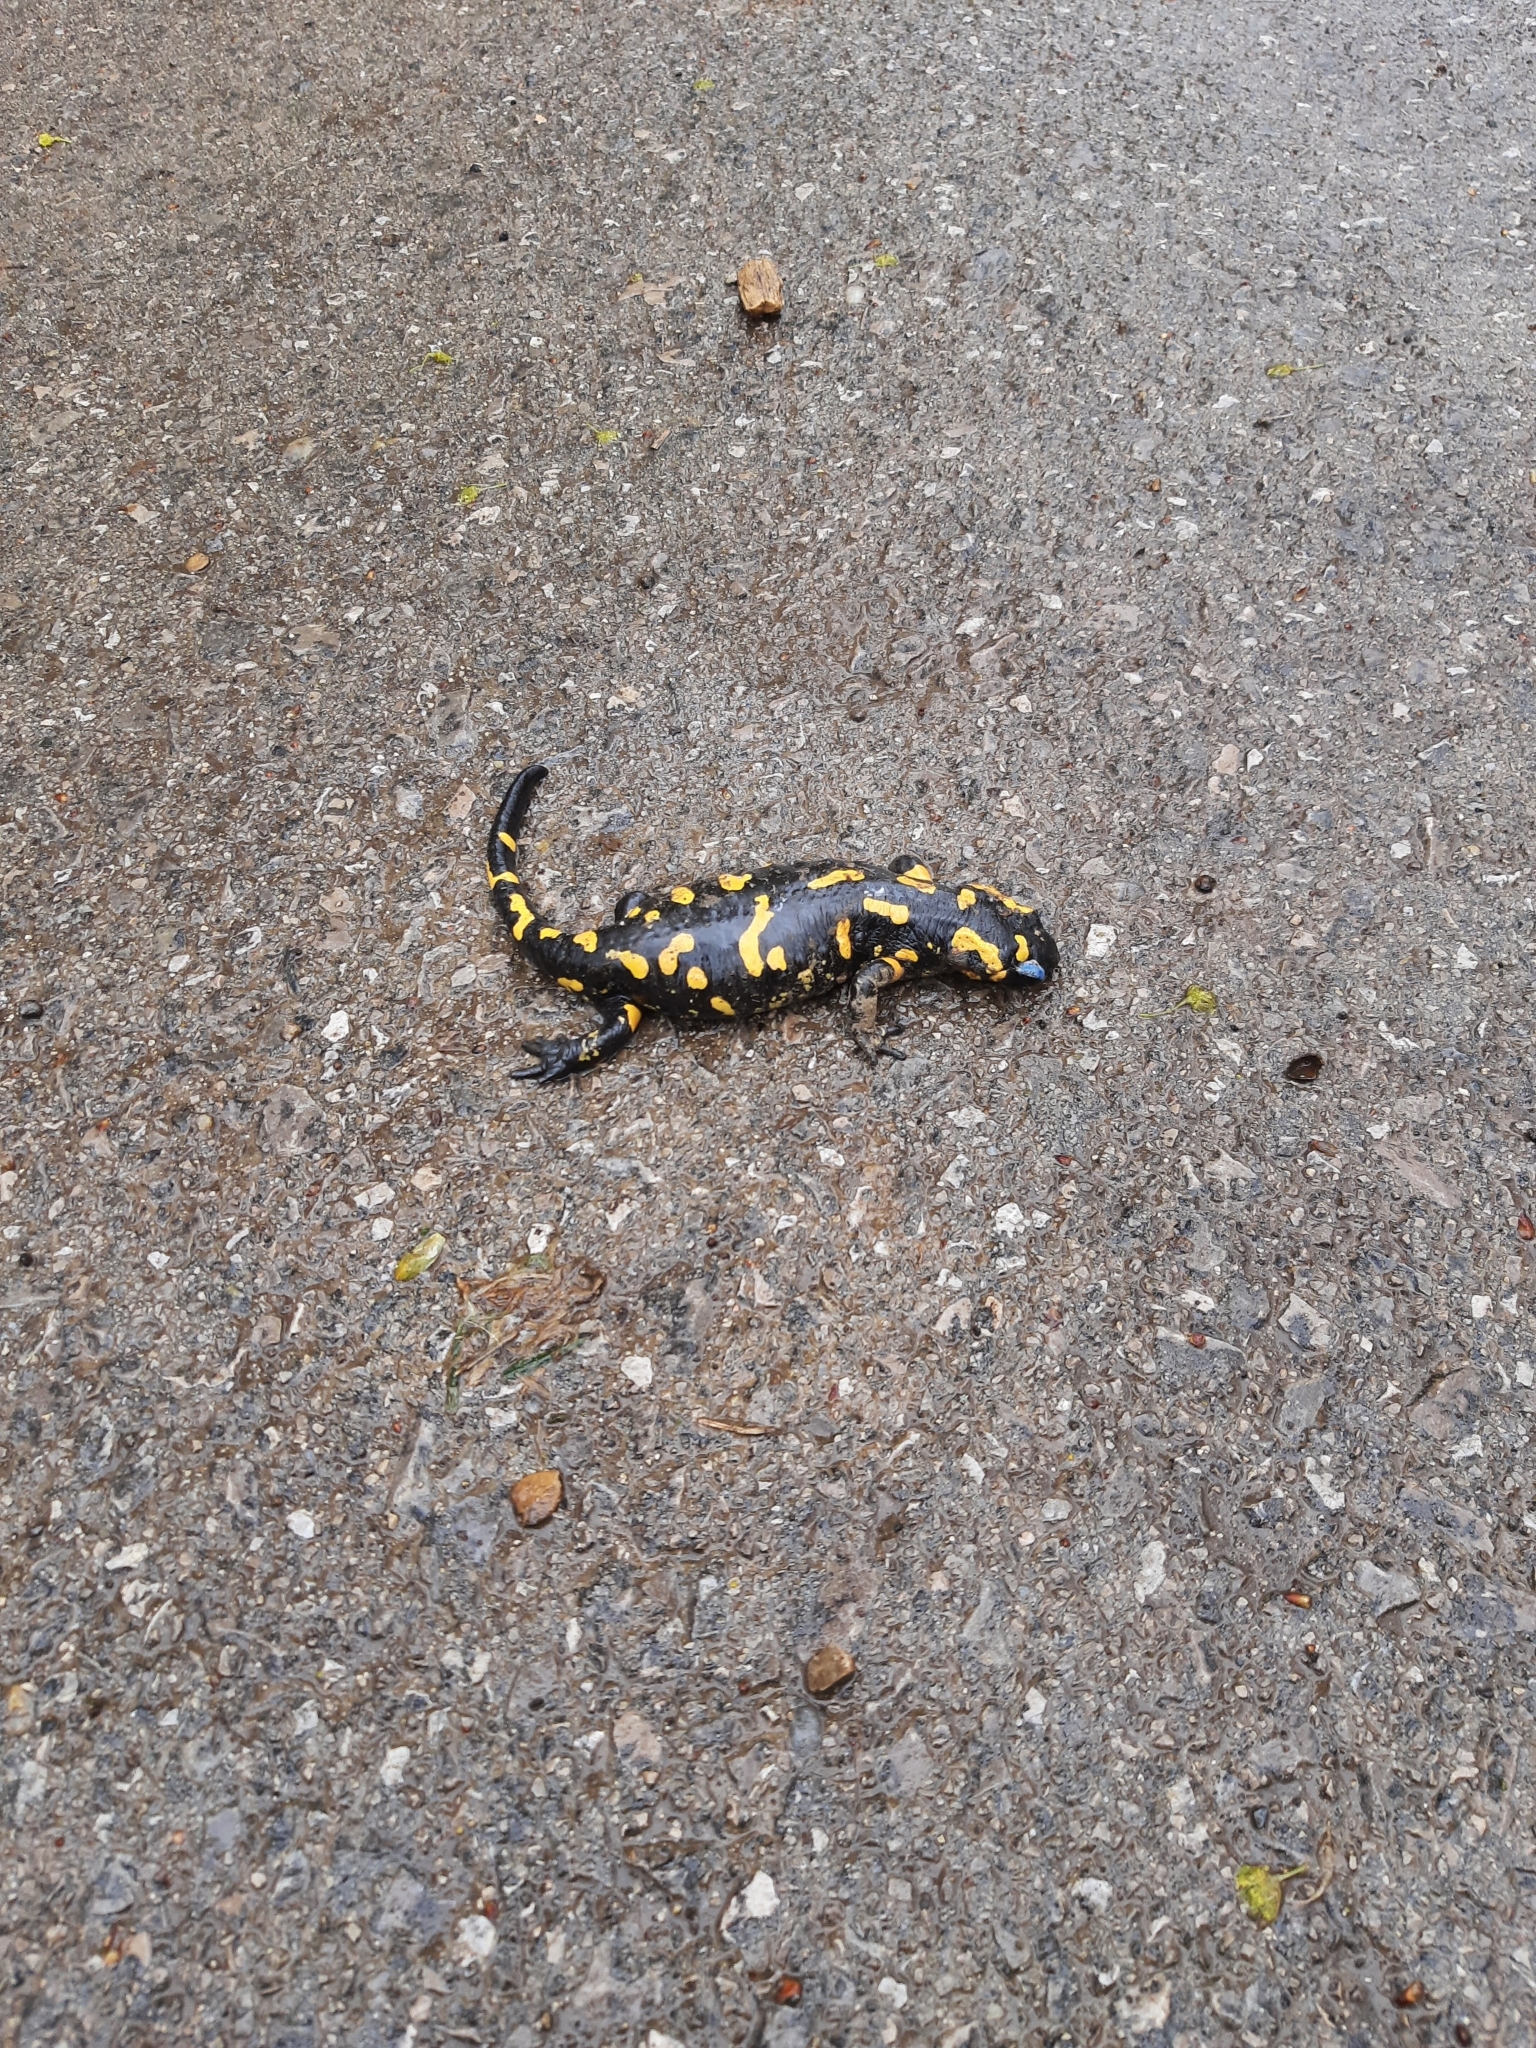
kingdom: Animalia
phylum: Chordata
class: Amphibia
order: Caudata
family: Salamandridae
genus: Salamandra
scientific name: Salamandra salamandra
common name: Fire salamander
